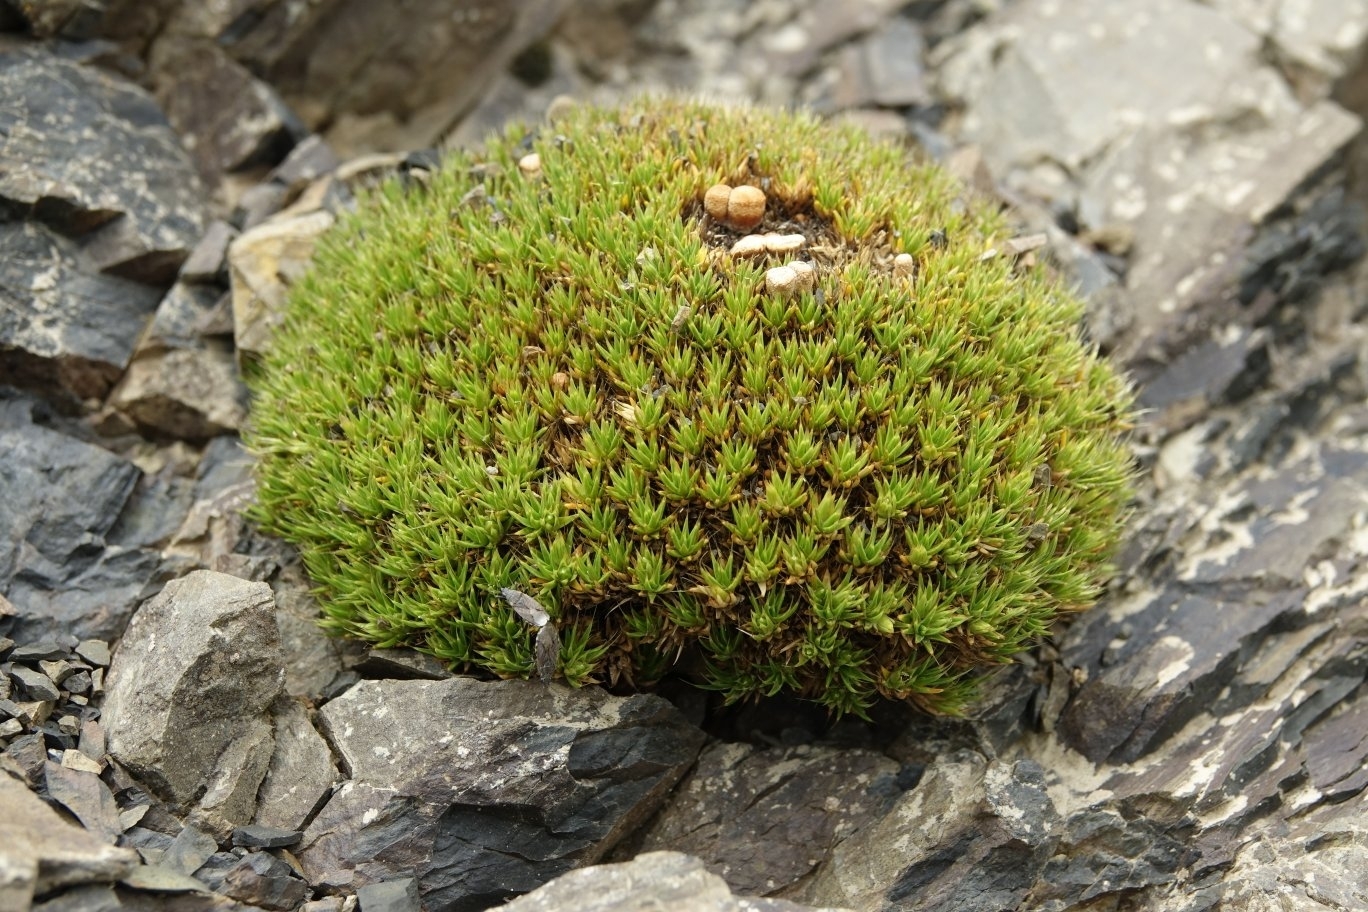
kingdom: Plantae
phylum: Tracheophyta
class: Magnoliopsida
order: Caryophyllales
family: Caryophyllaceae
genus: Colobanthus
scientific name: Colobanthus buchananii
